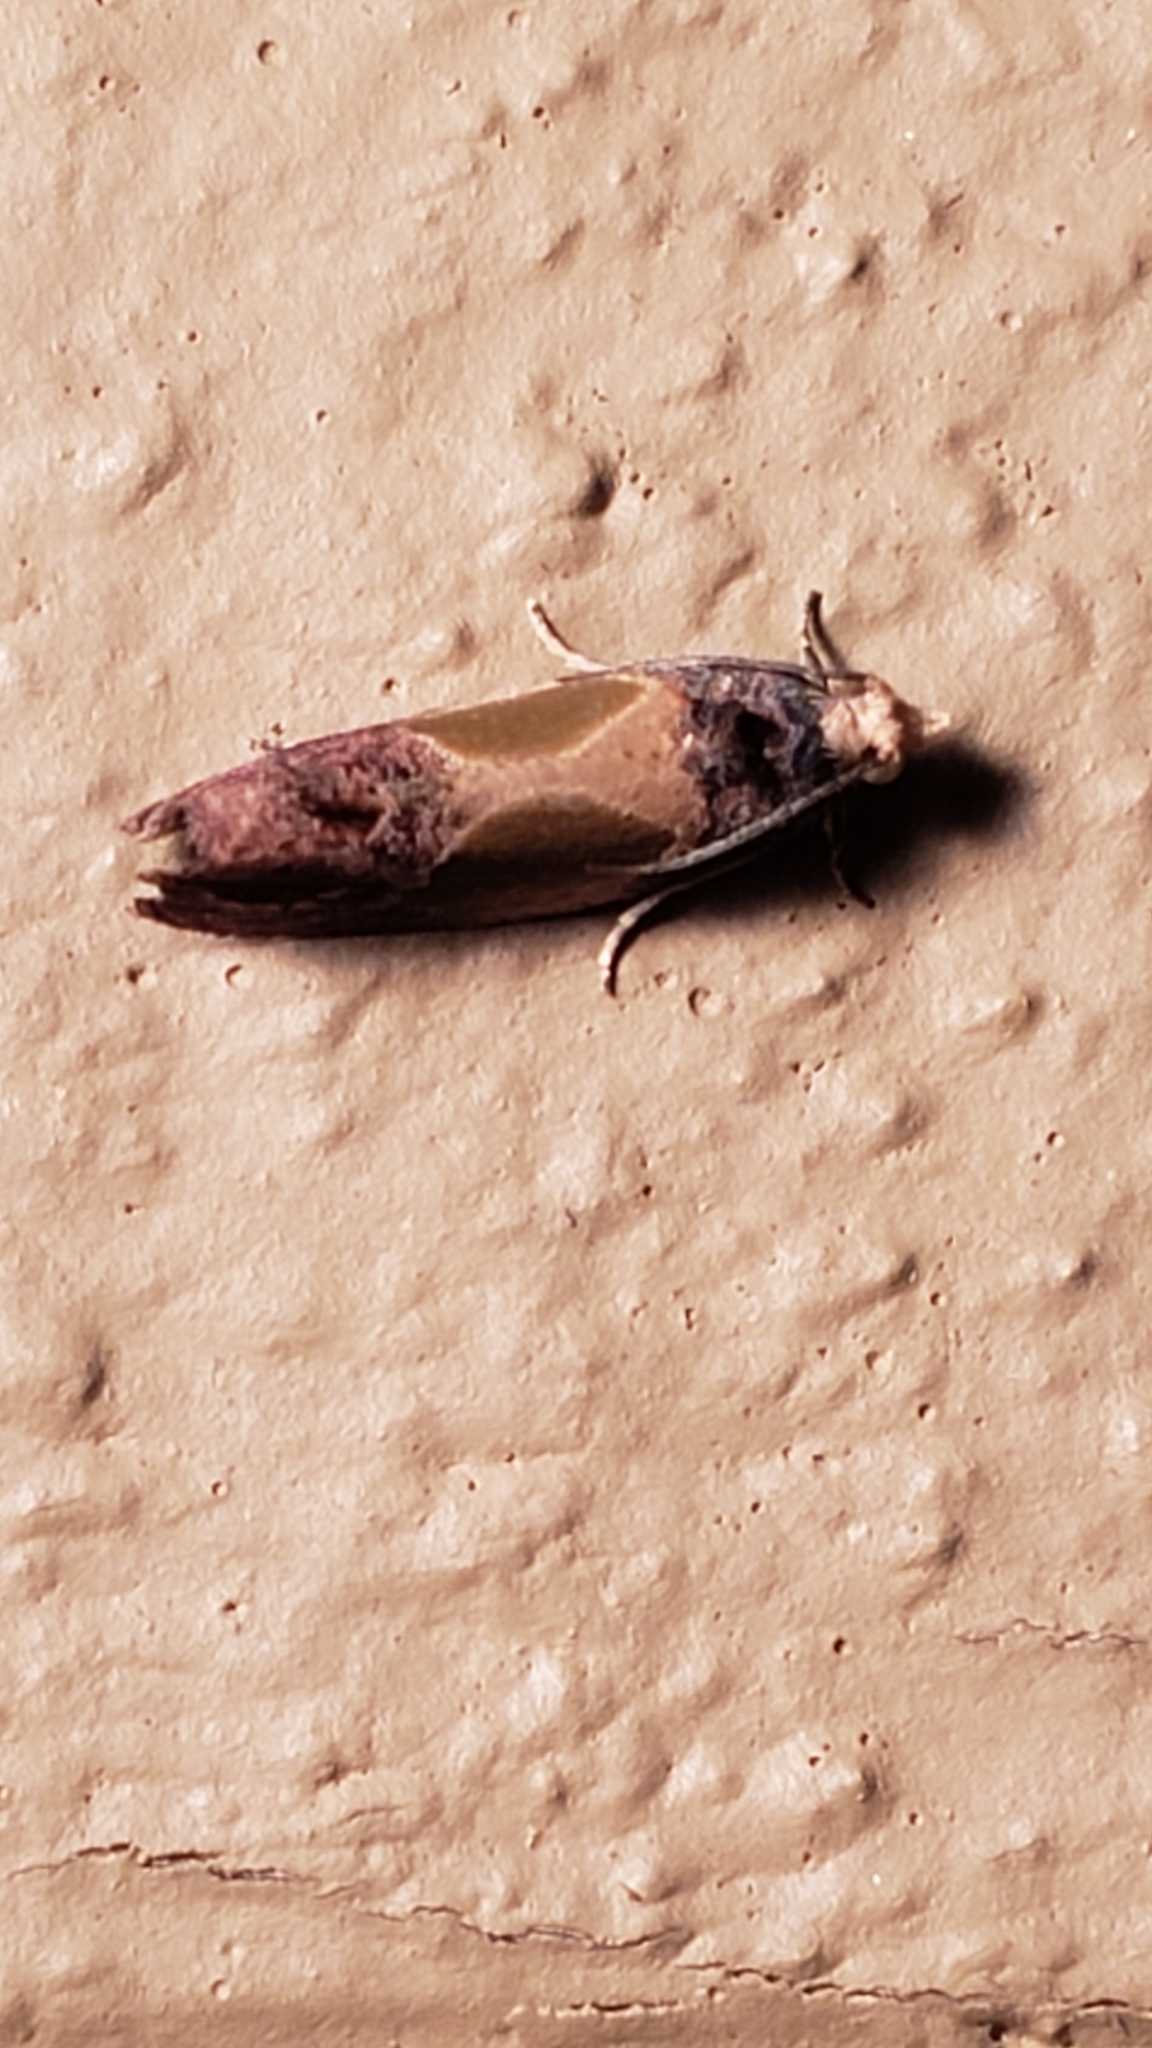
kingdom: Animalia
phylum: Arthropoda
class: Insecta
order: Lepidoptera
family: Tortricidae
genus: Eumarozia
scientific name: Eumarozia malachitana
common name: Sculptured moth
